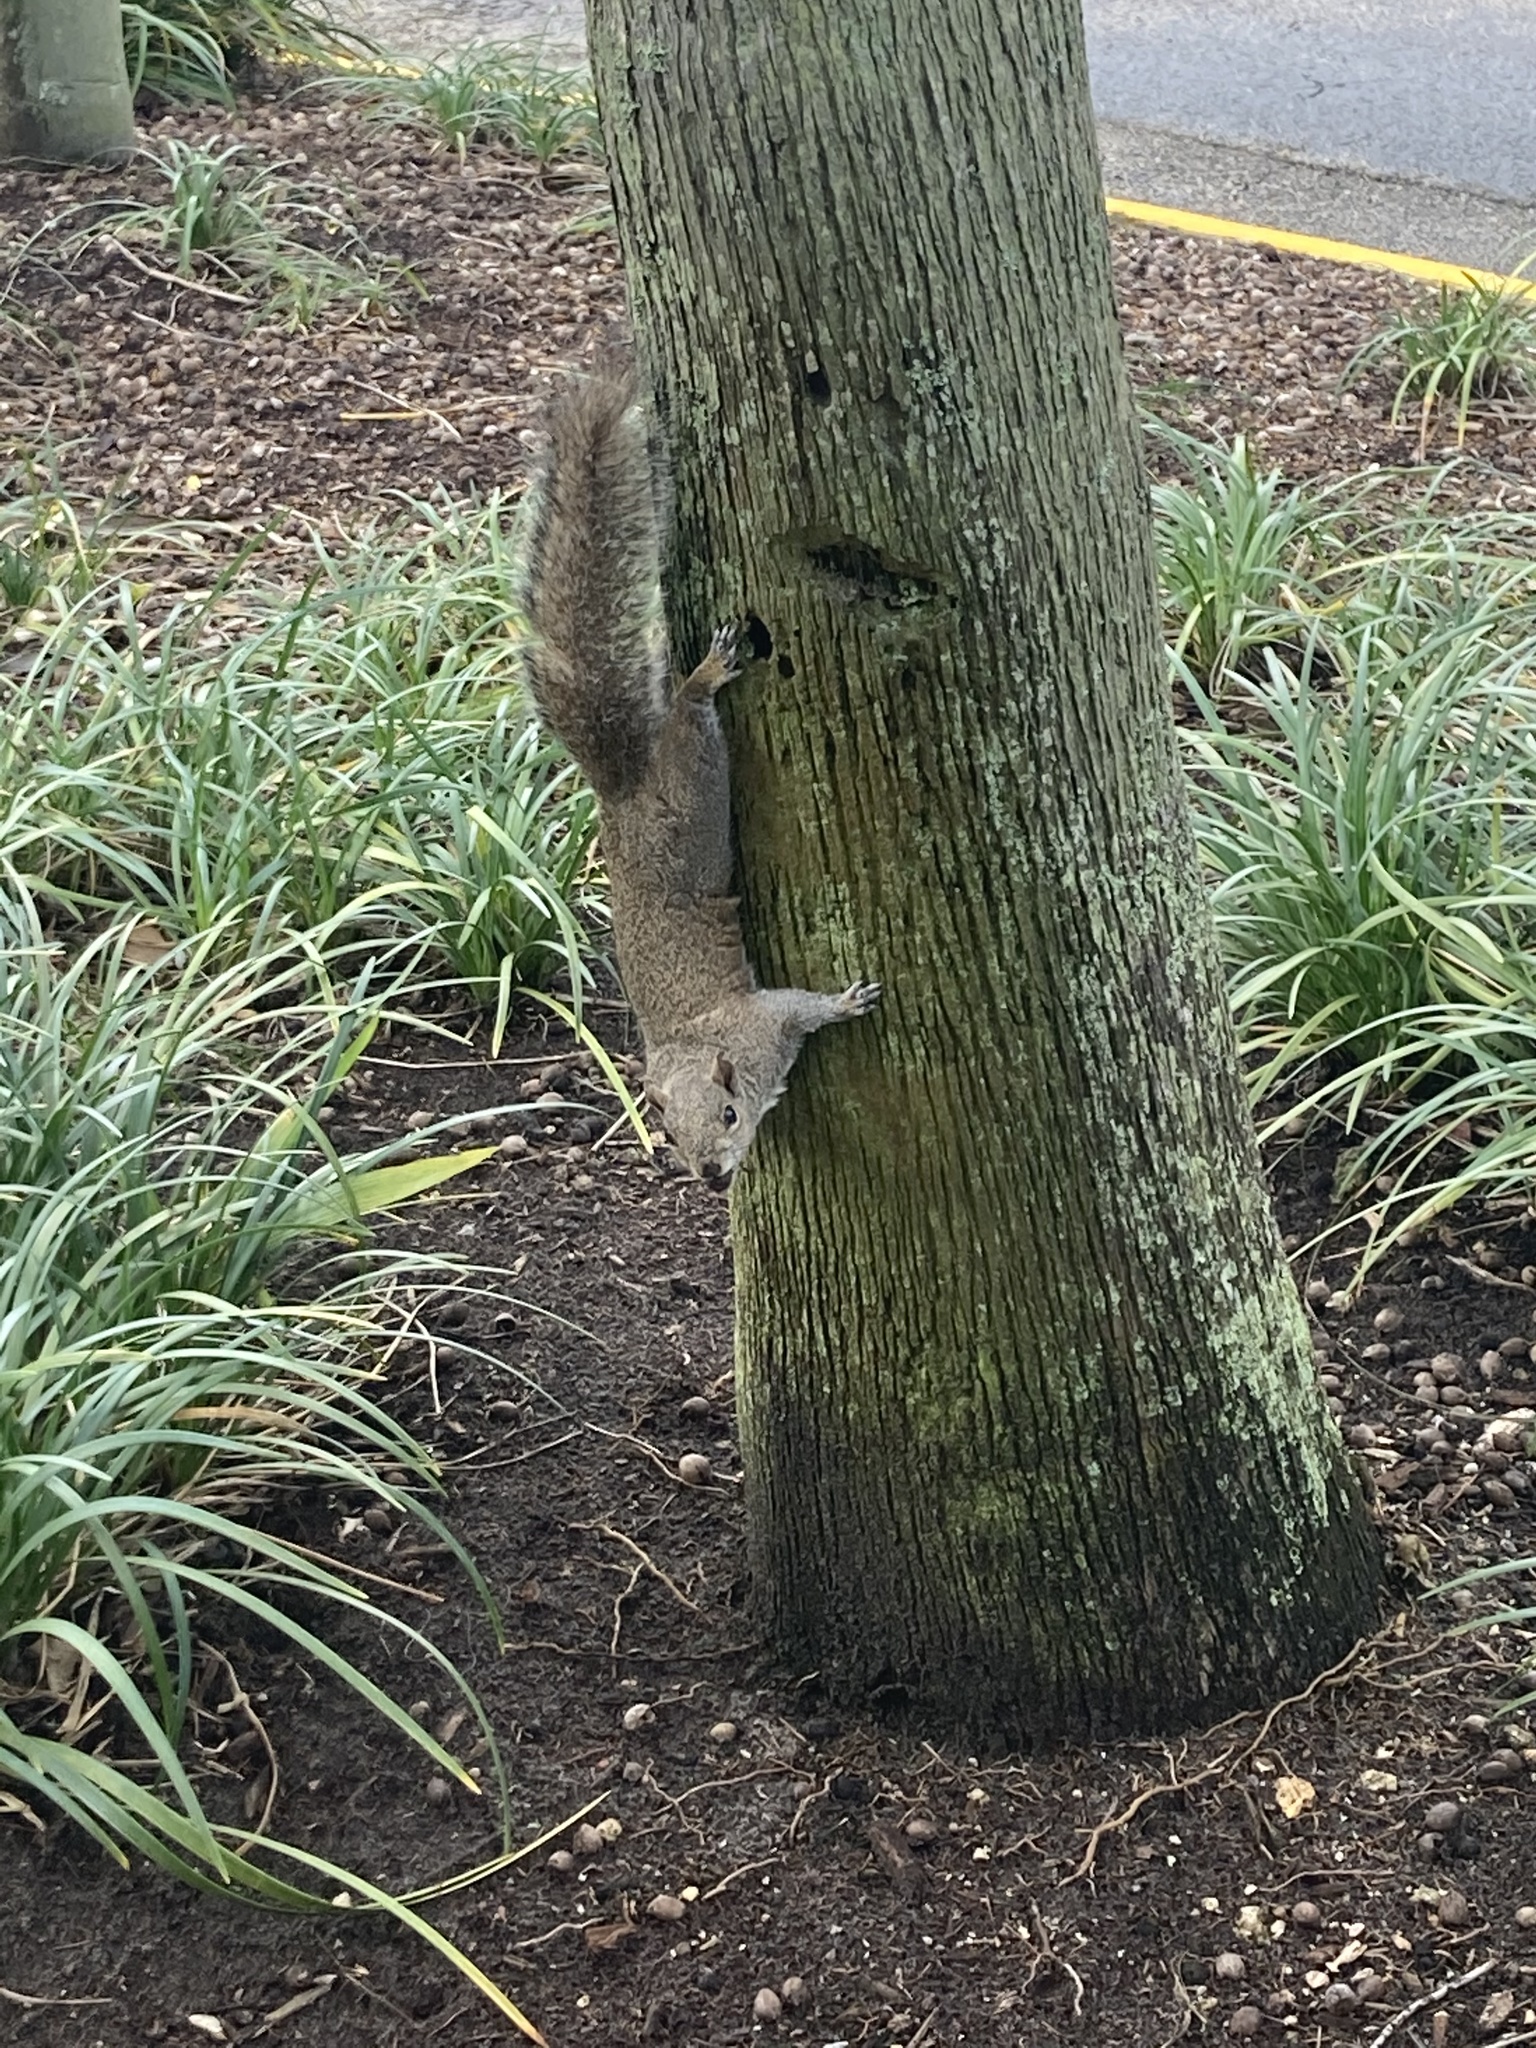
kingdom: Animalia
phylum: Chordata
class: Mammalia
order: Rodentia
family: Sciuridae
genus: Sciurus
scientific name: Sciurus carolinensis
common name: Eastern gray squirrel
